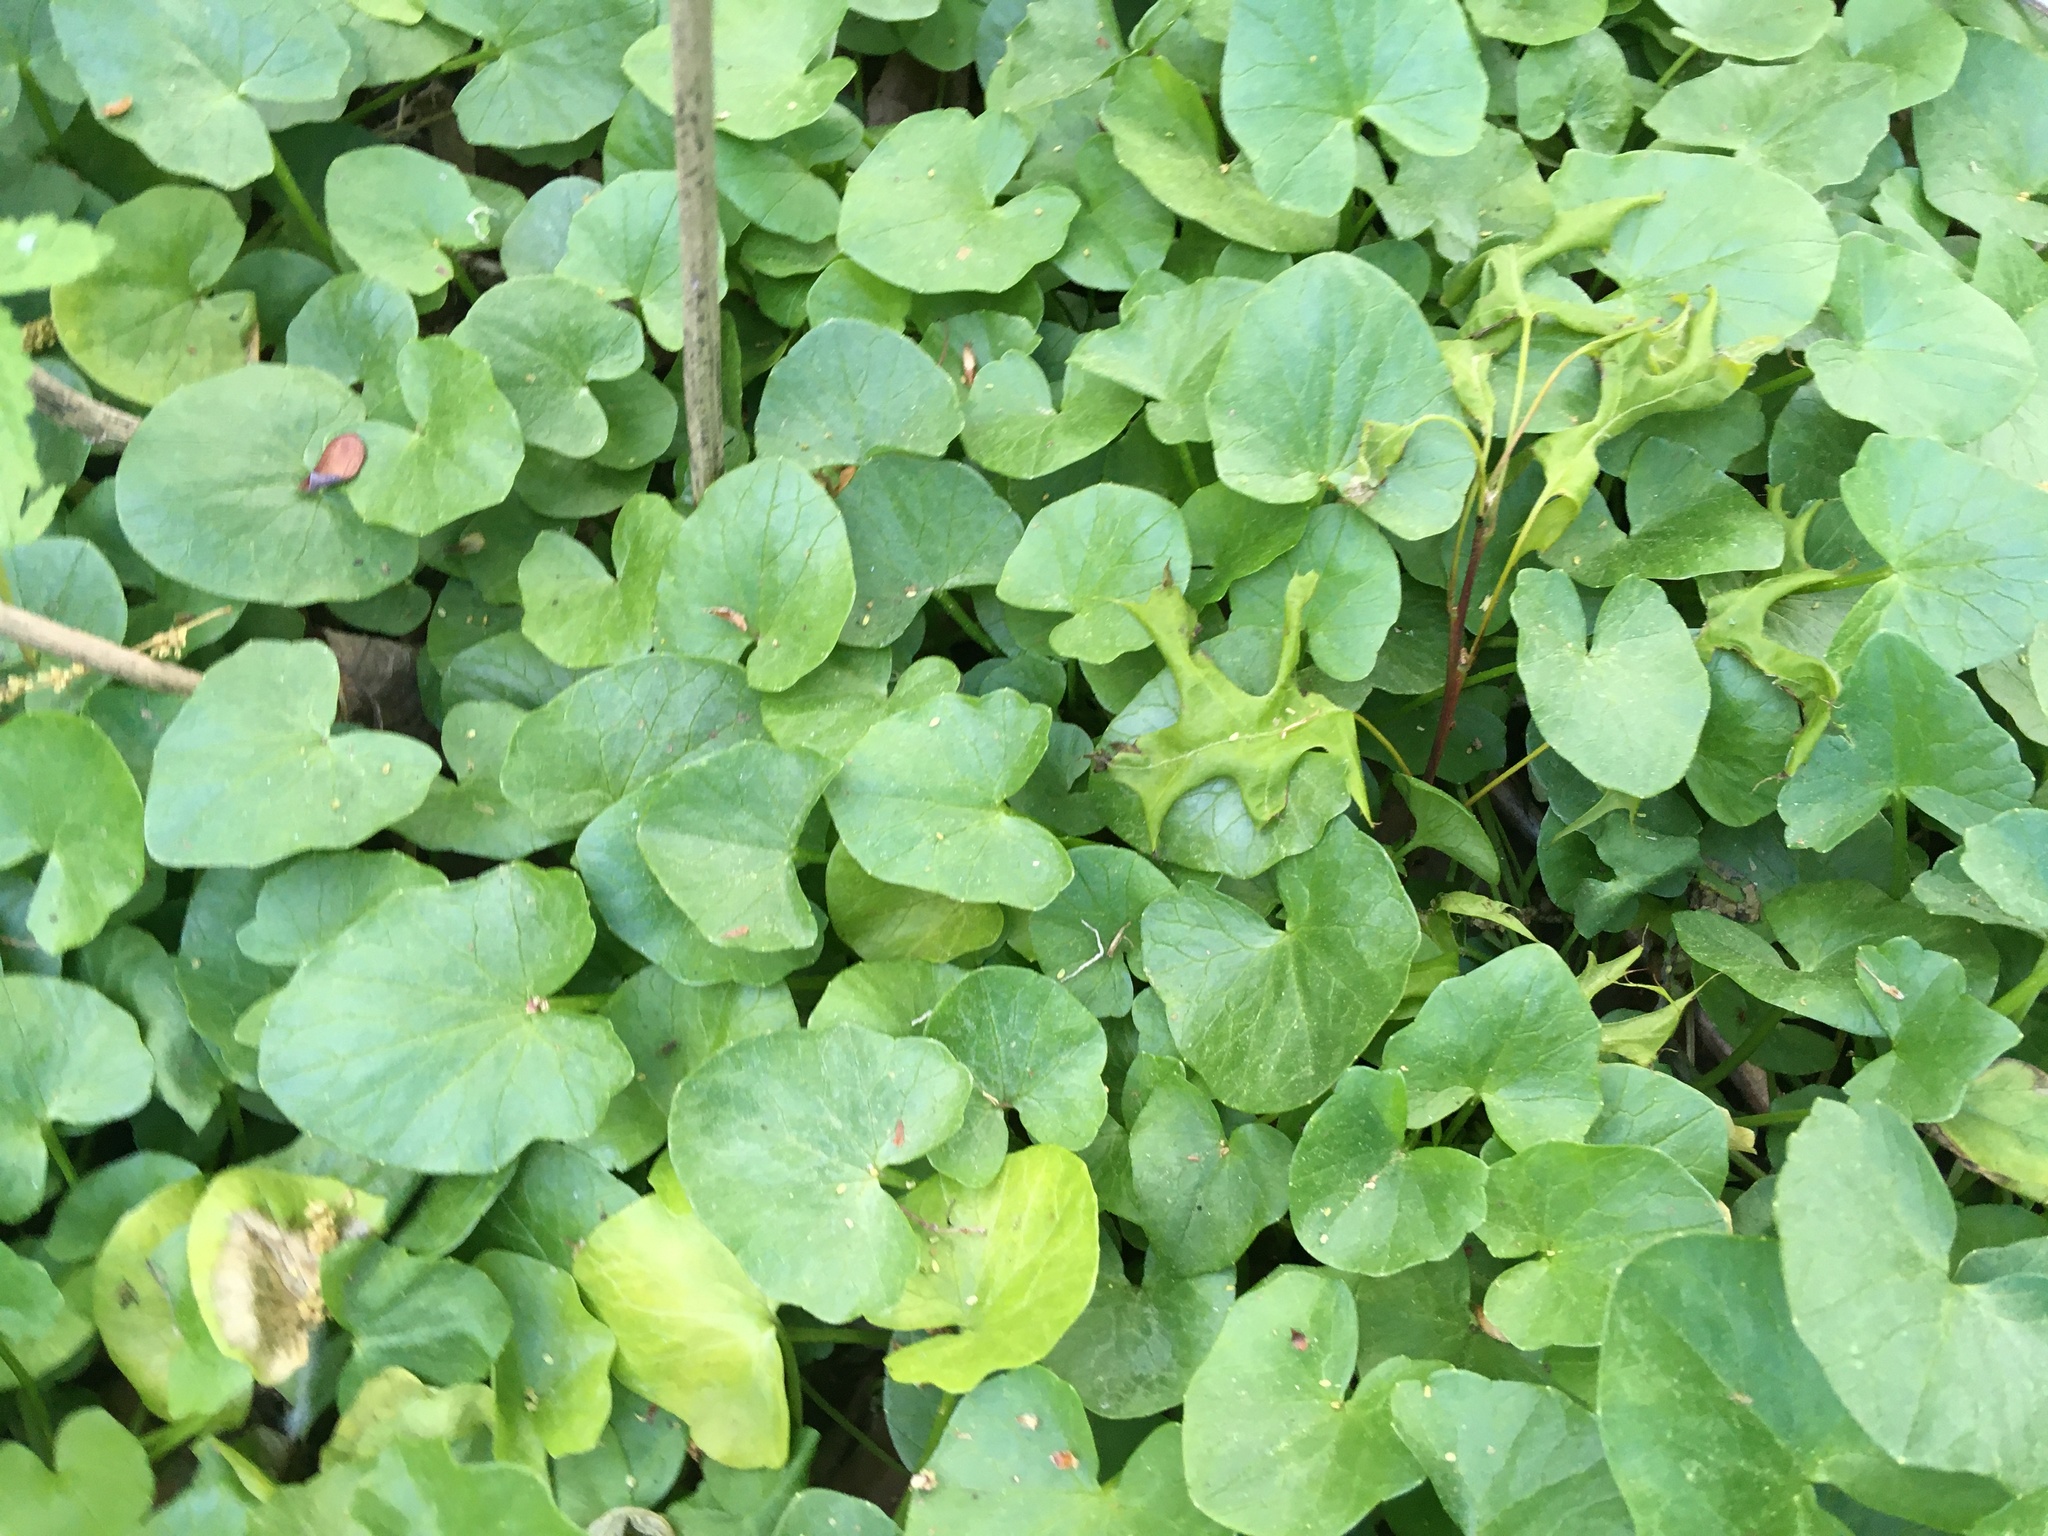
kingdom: Plantae
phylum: Tracheophyta
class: Magnoliopsida
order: Ranunculales
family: Ranunculaceae
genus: Ficaria
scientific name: Ficaria verna
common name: Lesser celandine
